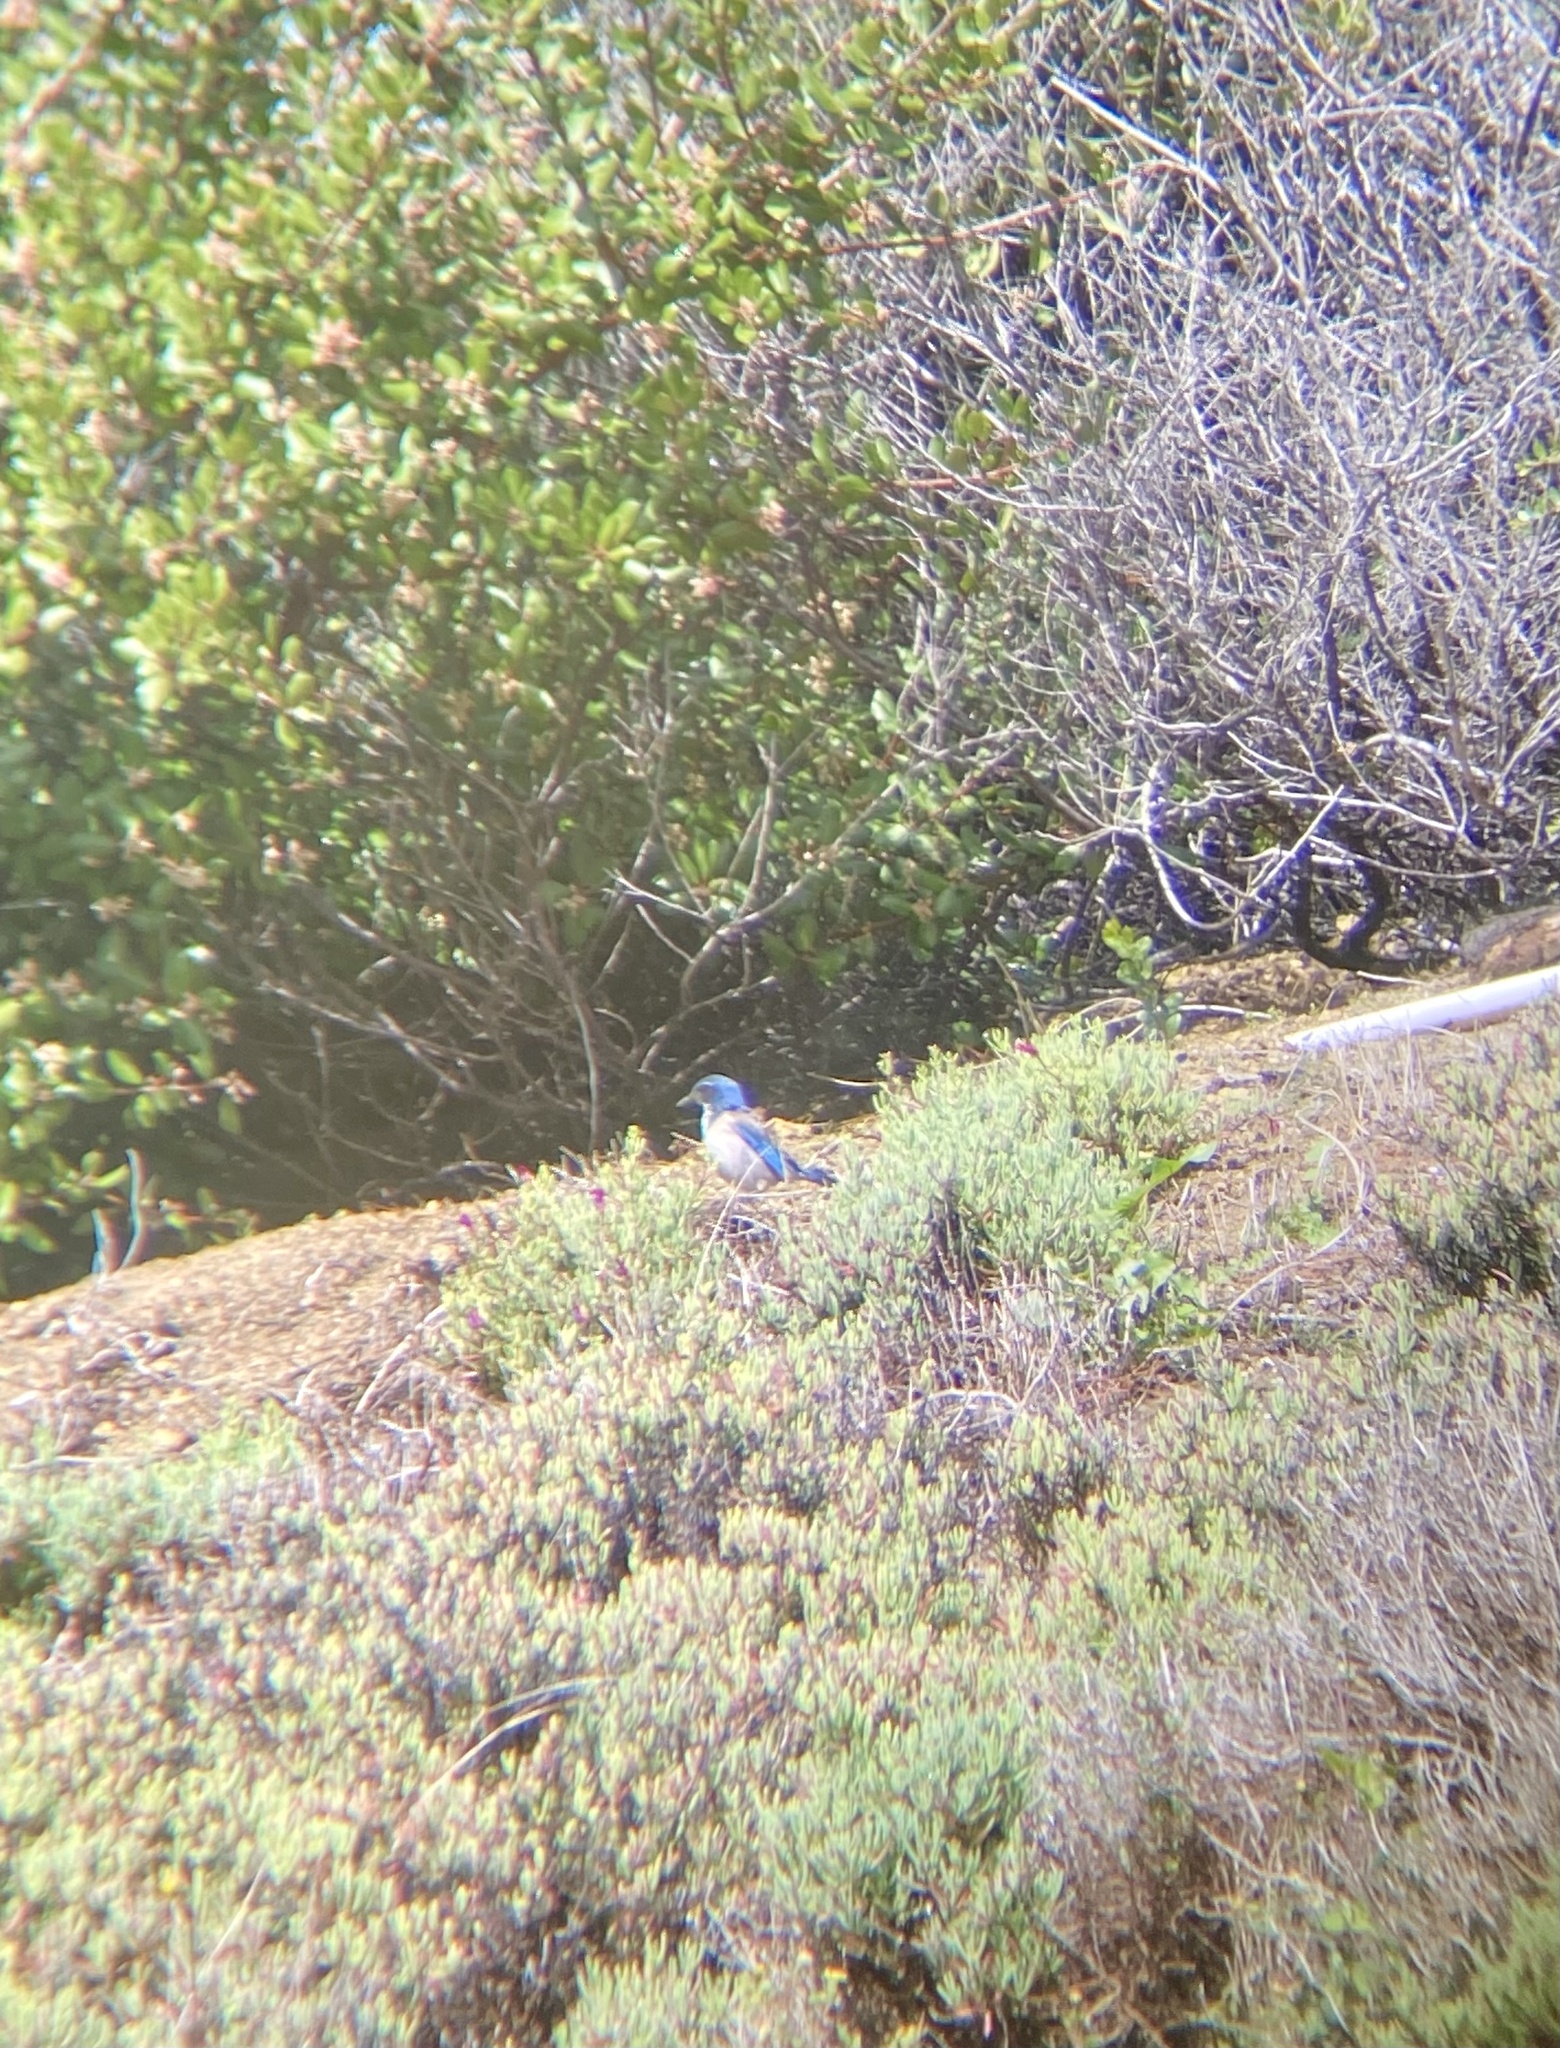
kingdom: Animalia
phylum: Chordata
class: Aves
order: Passeriformes
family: Corvidae
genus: Aphelocoma
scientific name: Aphelocoma californica
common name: California scrub-jay
